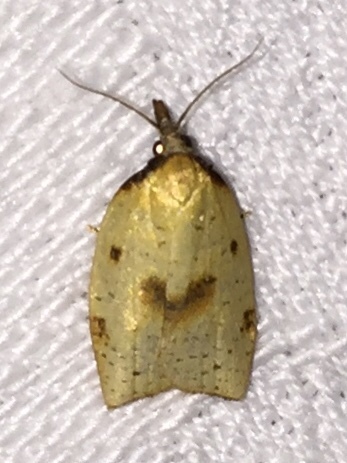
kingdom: Animalia
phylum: Arthropoda
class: Insecta
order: Lepidoptera
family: Tortricidae
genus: Sparganothis
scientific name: Sparganothis xanthoides
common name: Mosaic sparganothis moth
